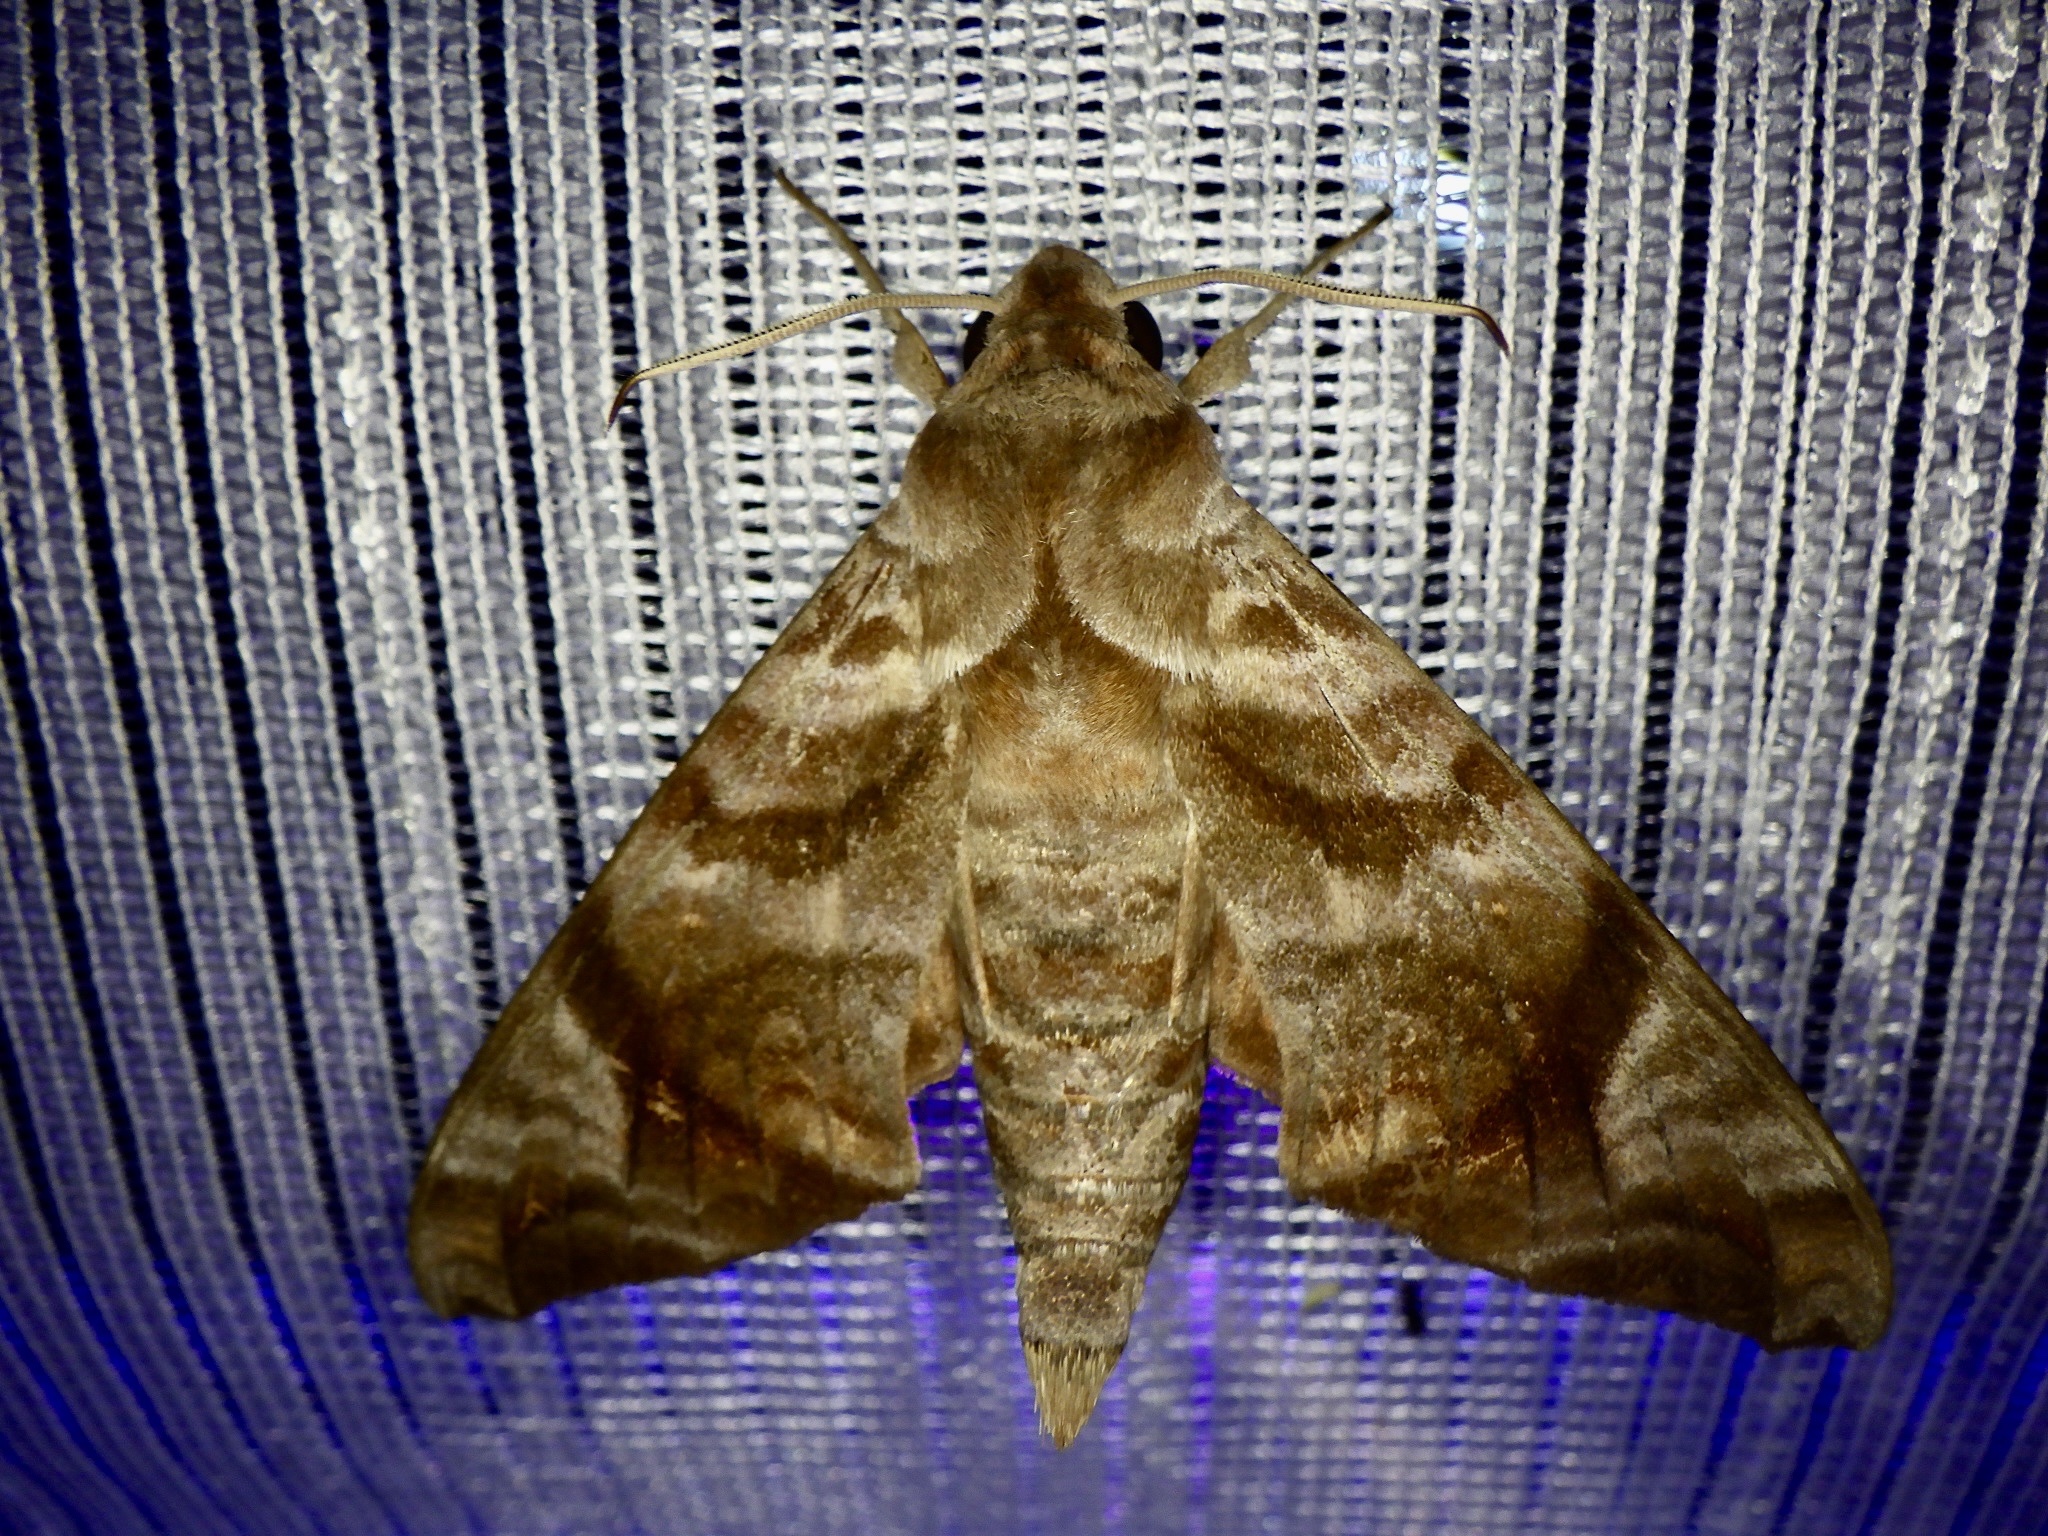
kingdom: Animalia
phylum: Arthropoda
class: Insecta
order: Lepidoptera
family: Sphingidae
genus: Acosmeryx
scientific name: Acosmeryx castanea
